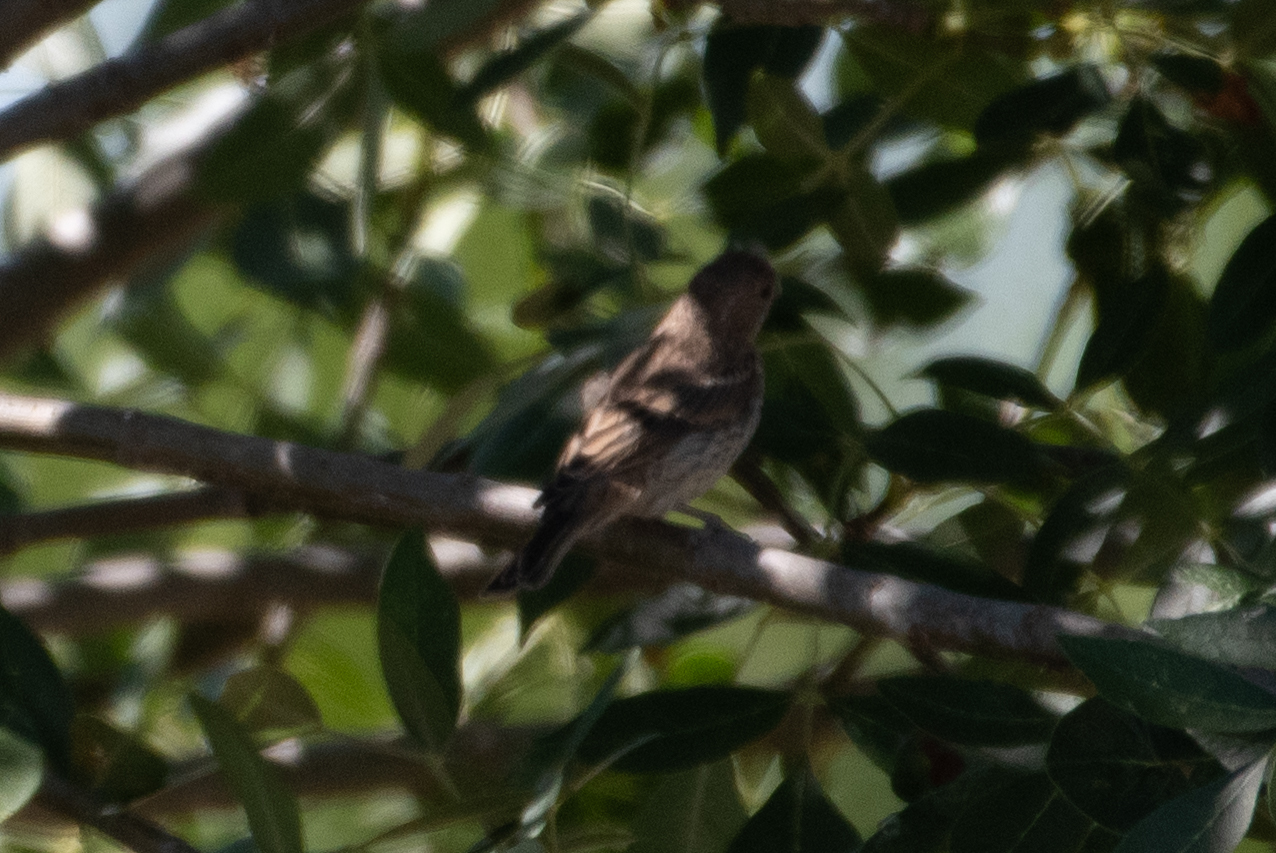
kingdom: Animalia
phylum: Chordata
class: Aves
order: Passeriformes
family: Fringillidae
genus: Haemorhous
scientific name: Haemorhous mexicanus
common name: House finch
